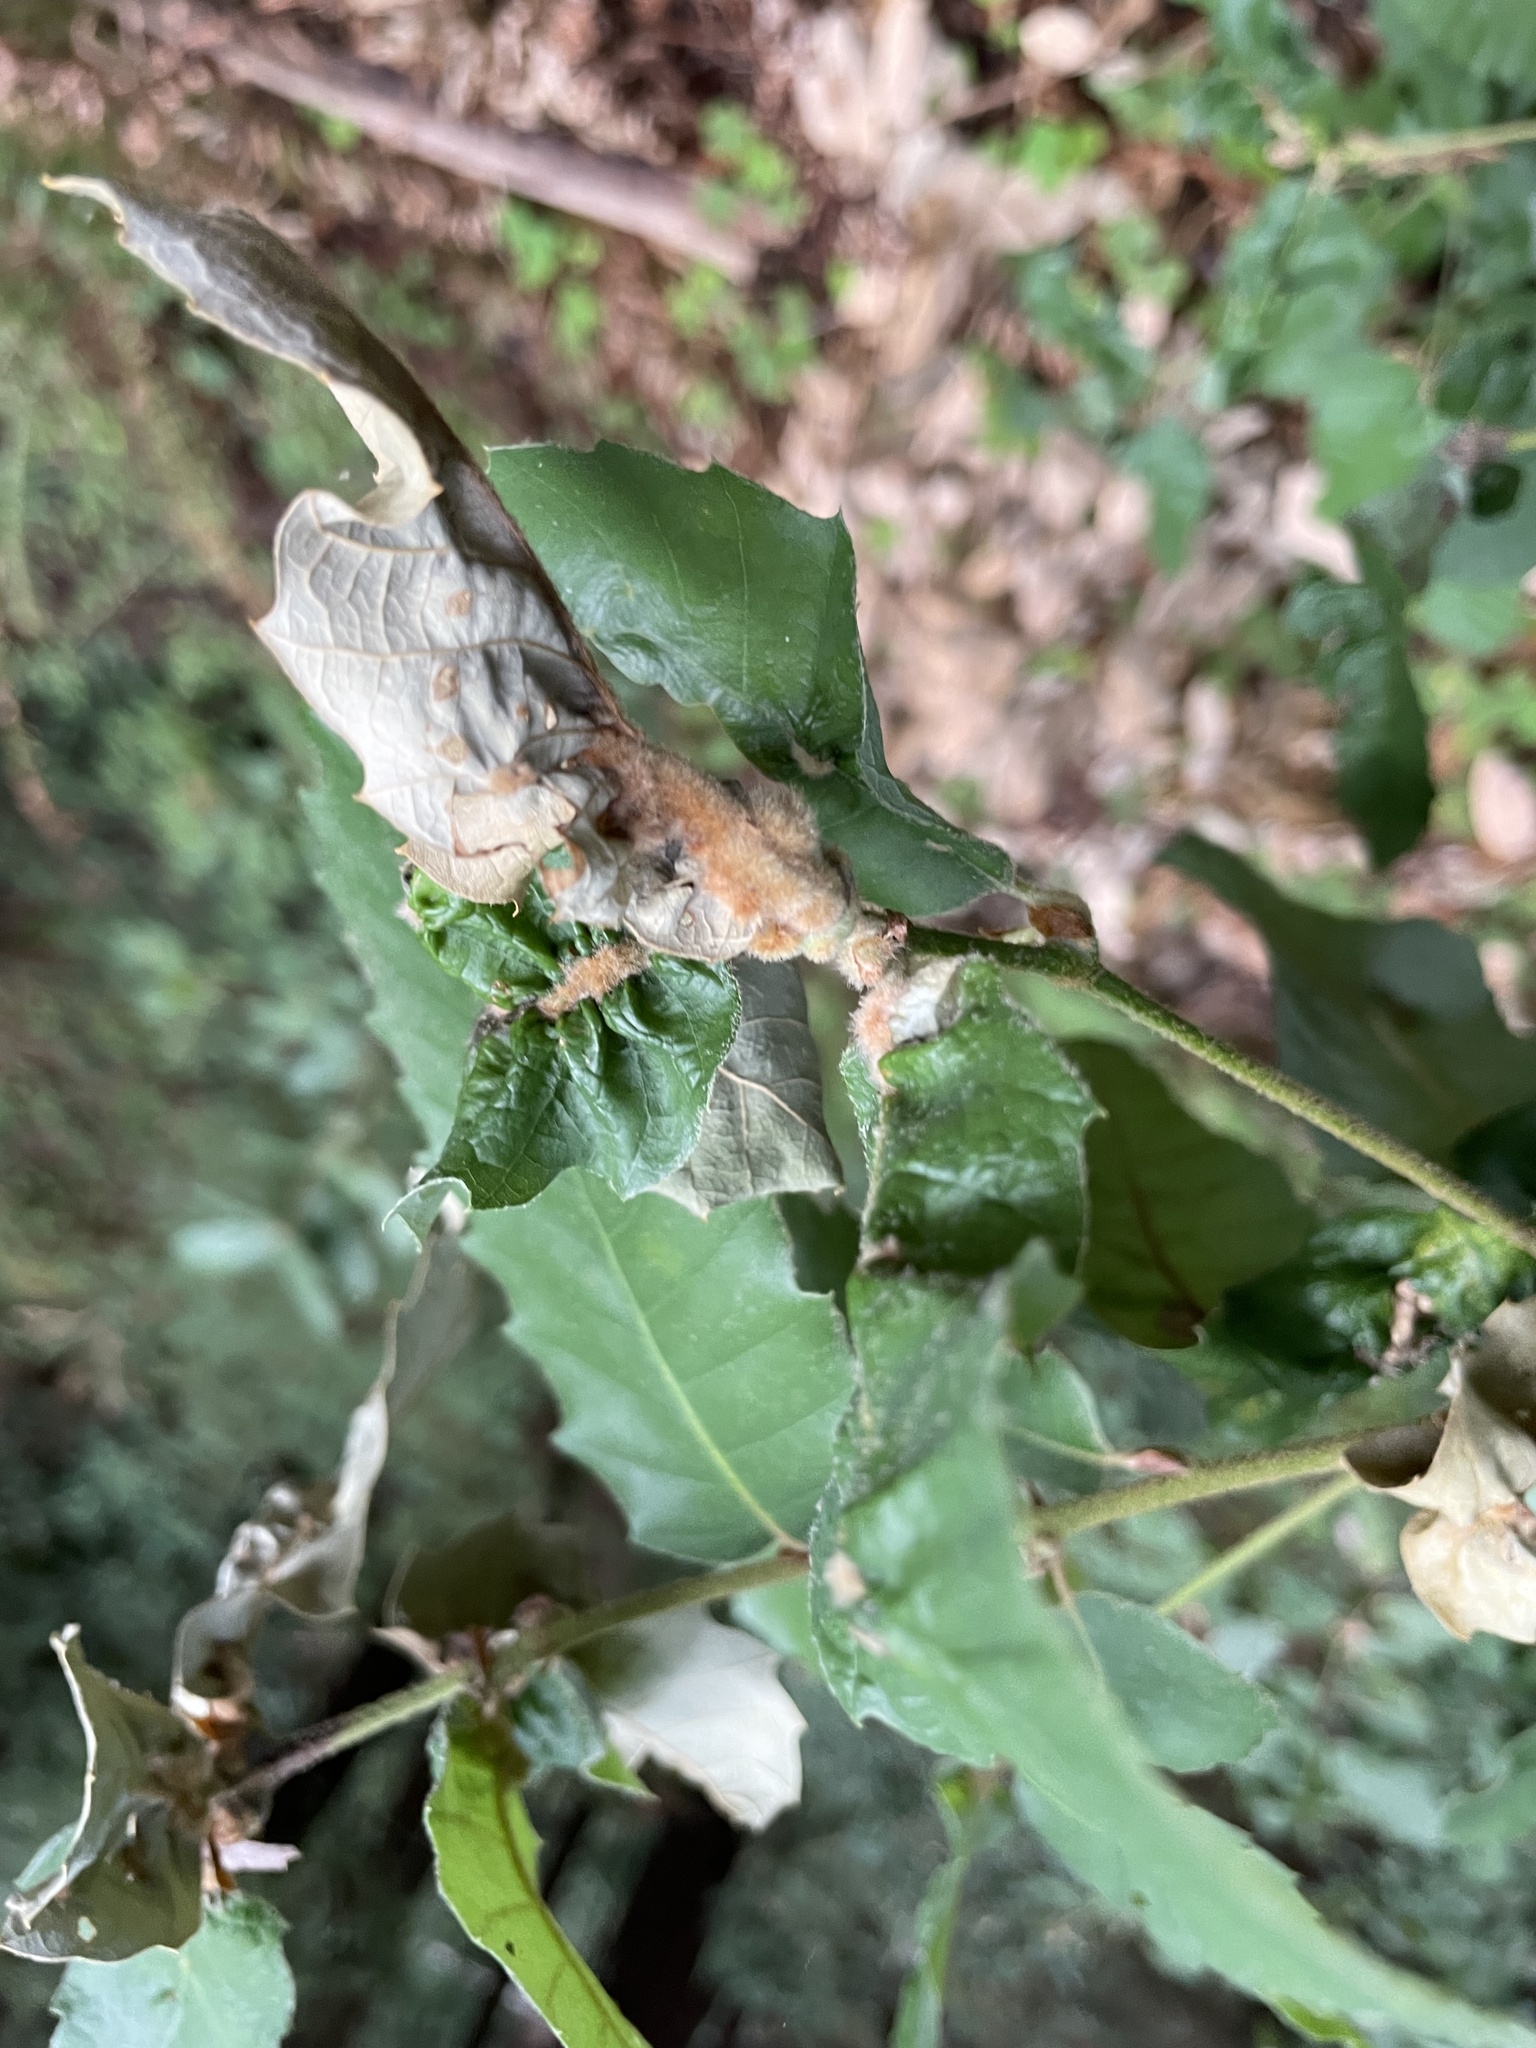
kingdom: Plantae
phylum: Tracheophyta
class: Magnoliopsida
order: Fagales
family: Fagaceae
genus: Notholithocarpus
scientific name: Notholithocarpus densiflorus
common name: Tan bark oak
